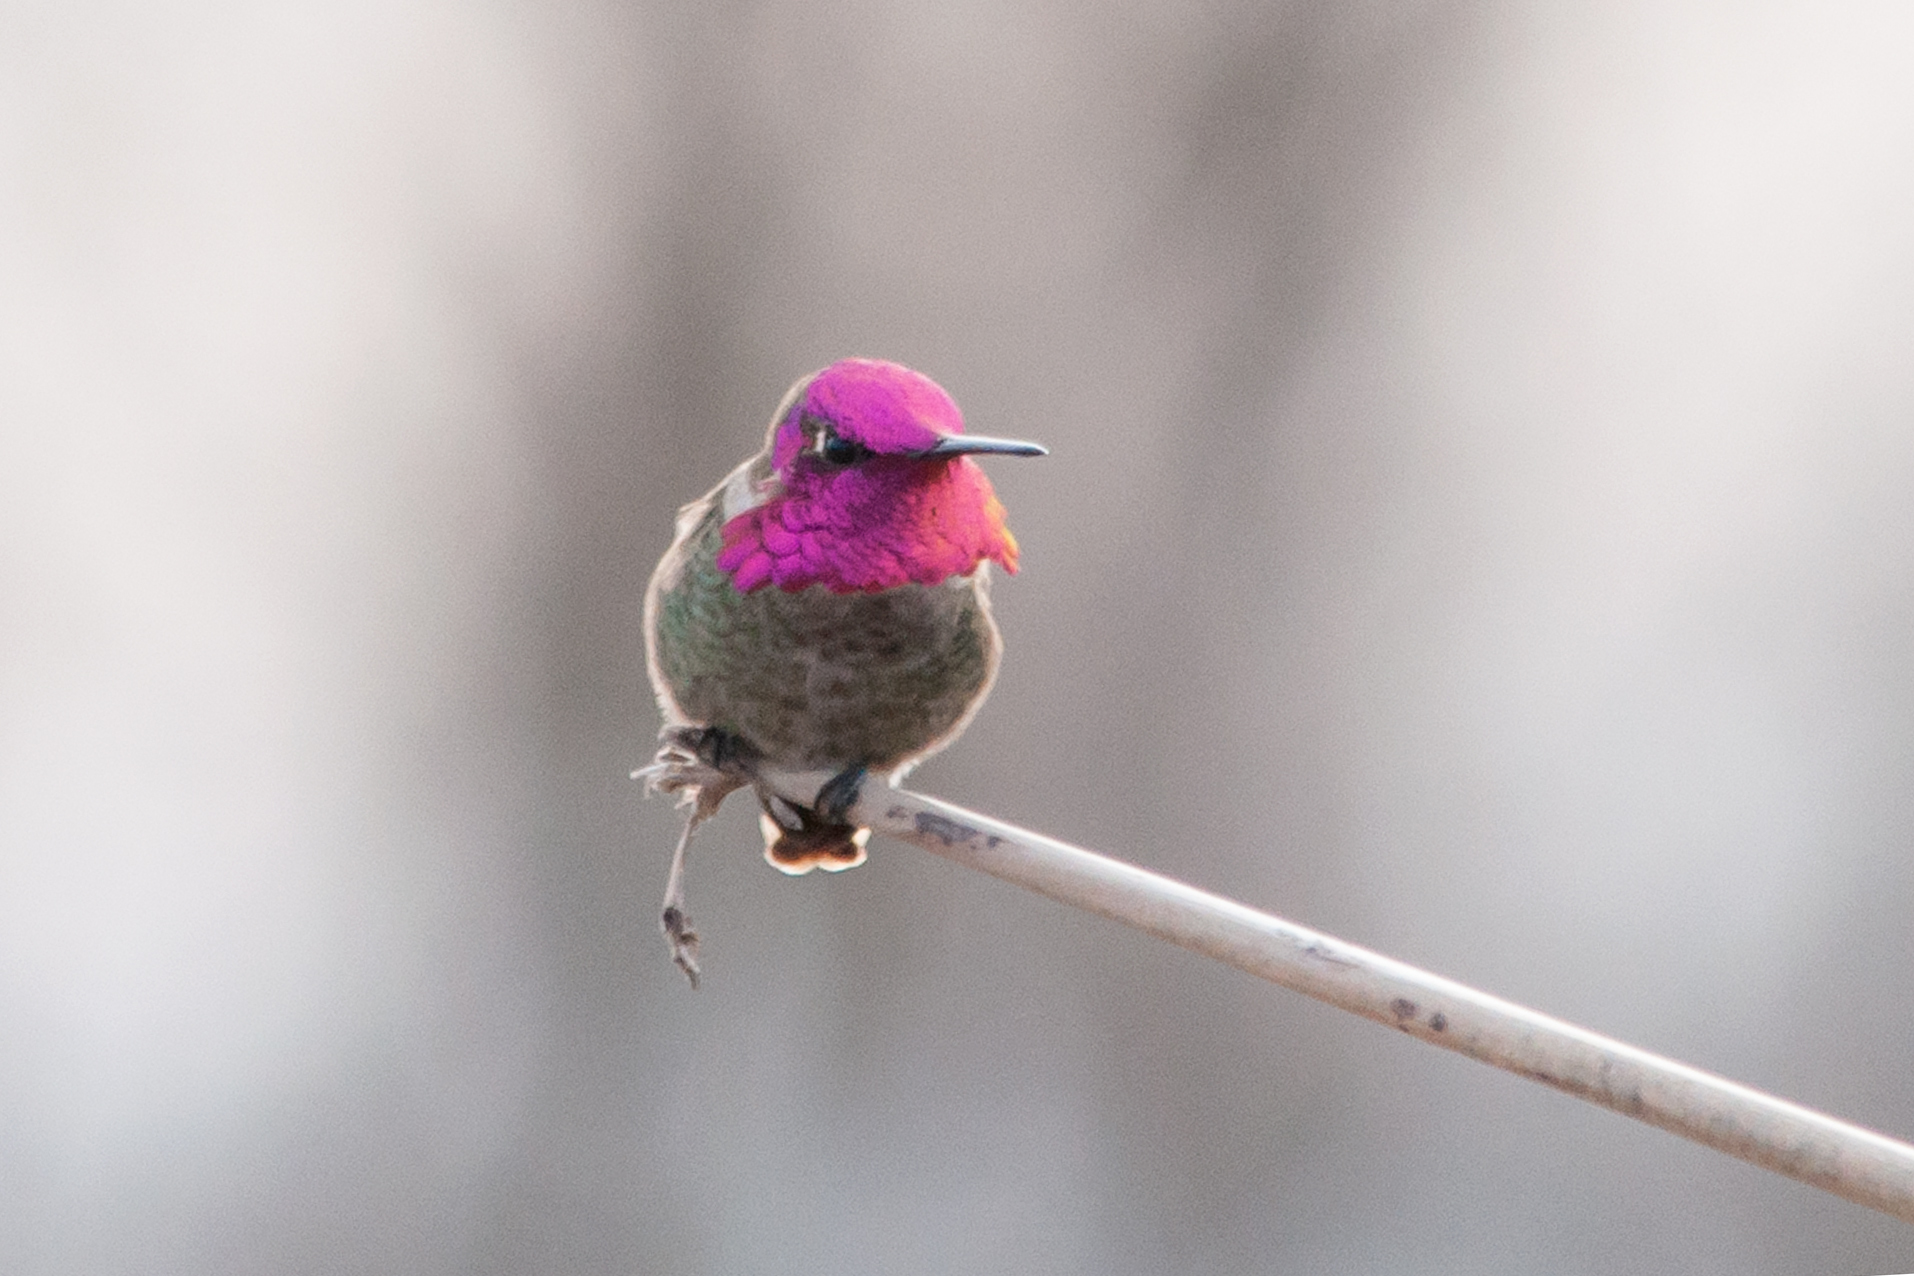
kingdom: Animalia
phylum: Chordata
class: Aves
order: Apodiformes
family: Trochilidae
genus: Calypte
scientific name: Calypte anna
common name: Anna's hummingbird
